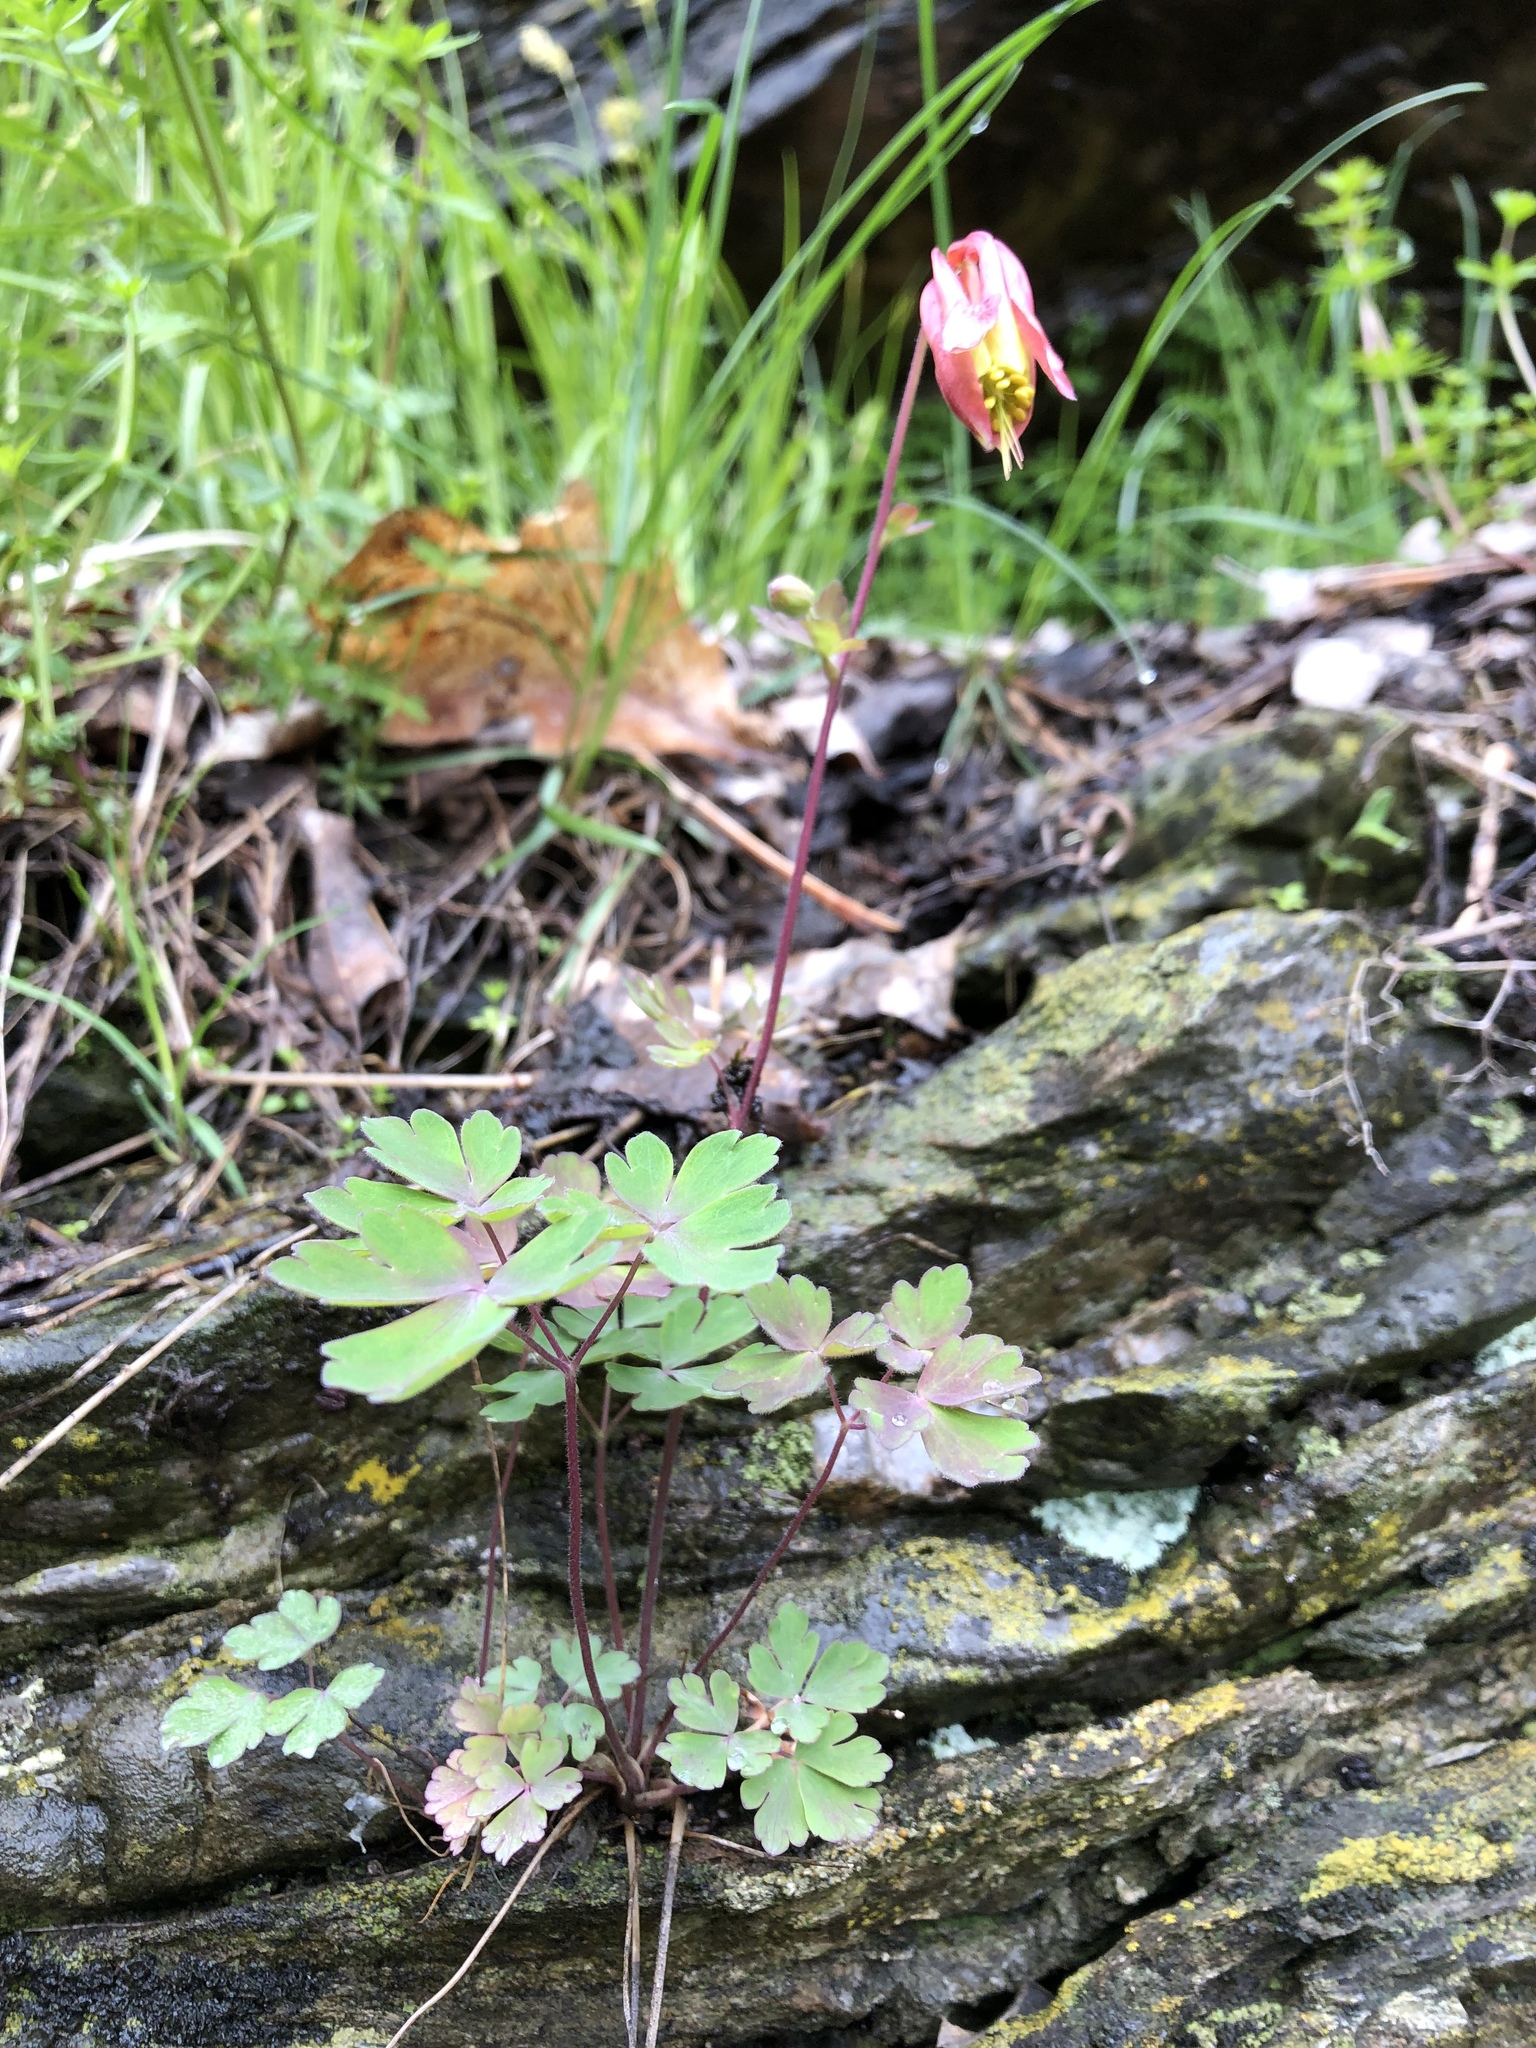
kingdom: Plantae
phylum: Tracheophyta
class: Magnoliopsida
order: Ranunculales
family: Ranunculaceae
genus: Aquilegia
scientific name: Aquilegia canadensis
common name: American columbine
